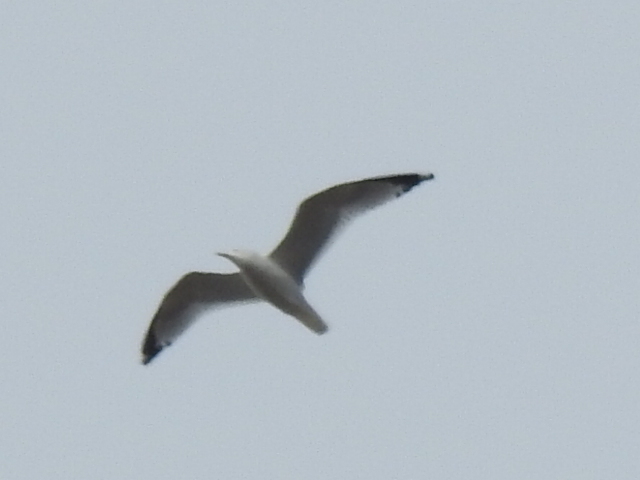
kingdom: Animalia
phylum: Chordata
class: Aves
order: Charadriiformes
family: Laridae
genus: Larus
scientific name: Larus delawarensis
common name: Ring-billed gull
